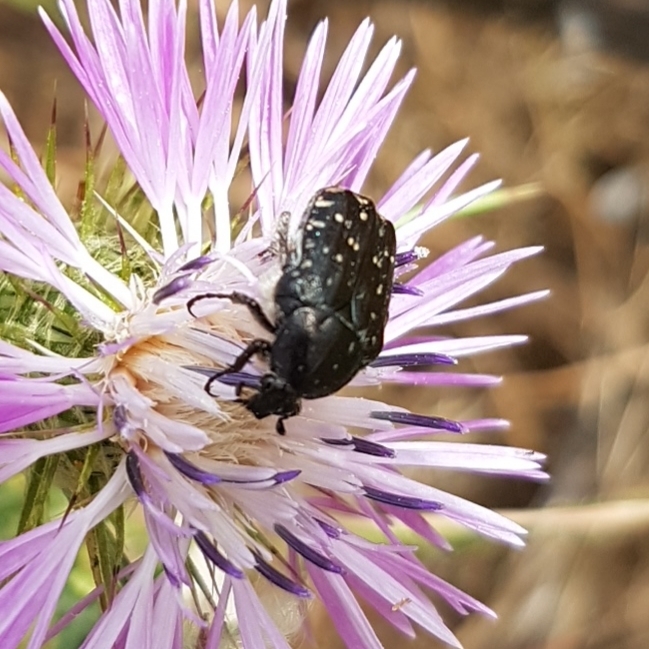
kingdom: Animalia
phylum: Arthropoda
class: Insecta
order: Coleoptera
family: Scarabaeidae
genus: Oxythyrea
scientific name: Oxythyrea funesta
